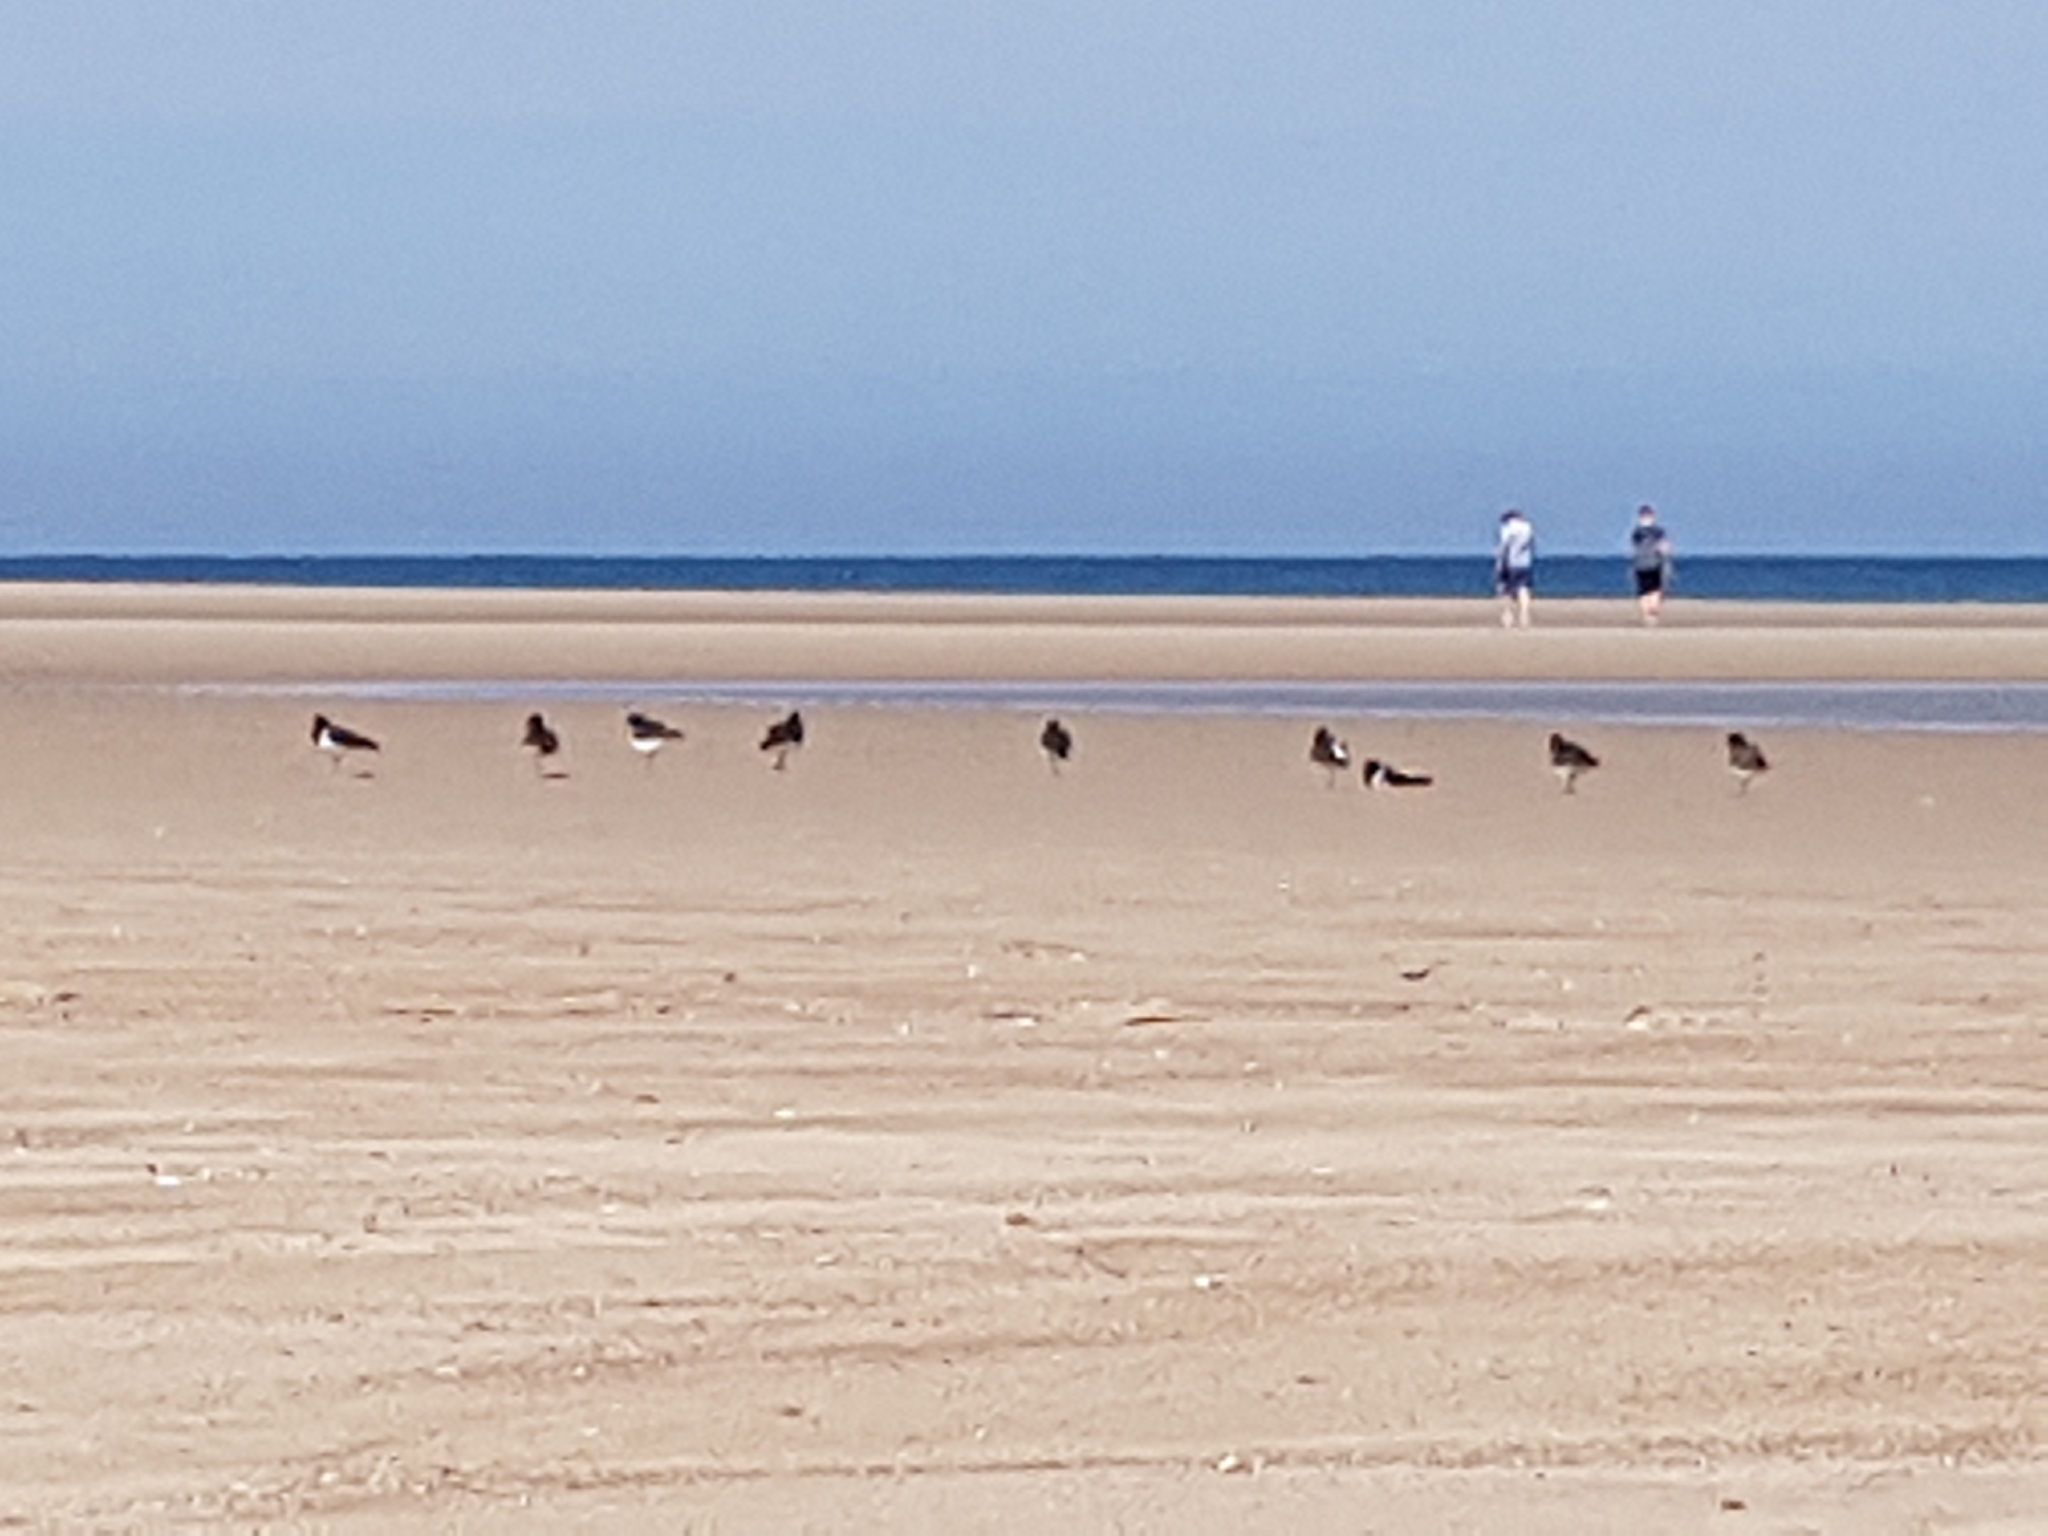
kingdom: Animalia
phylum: Chordata
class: Aves
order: Charadriiformes
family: Haematopodidae
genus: Haematopus
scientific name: Haematopus ostralegus
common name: Eurasian oystercatcher
